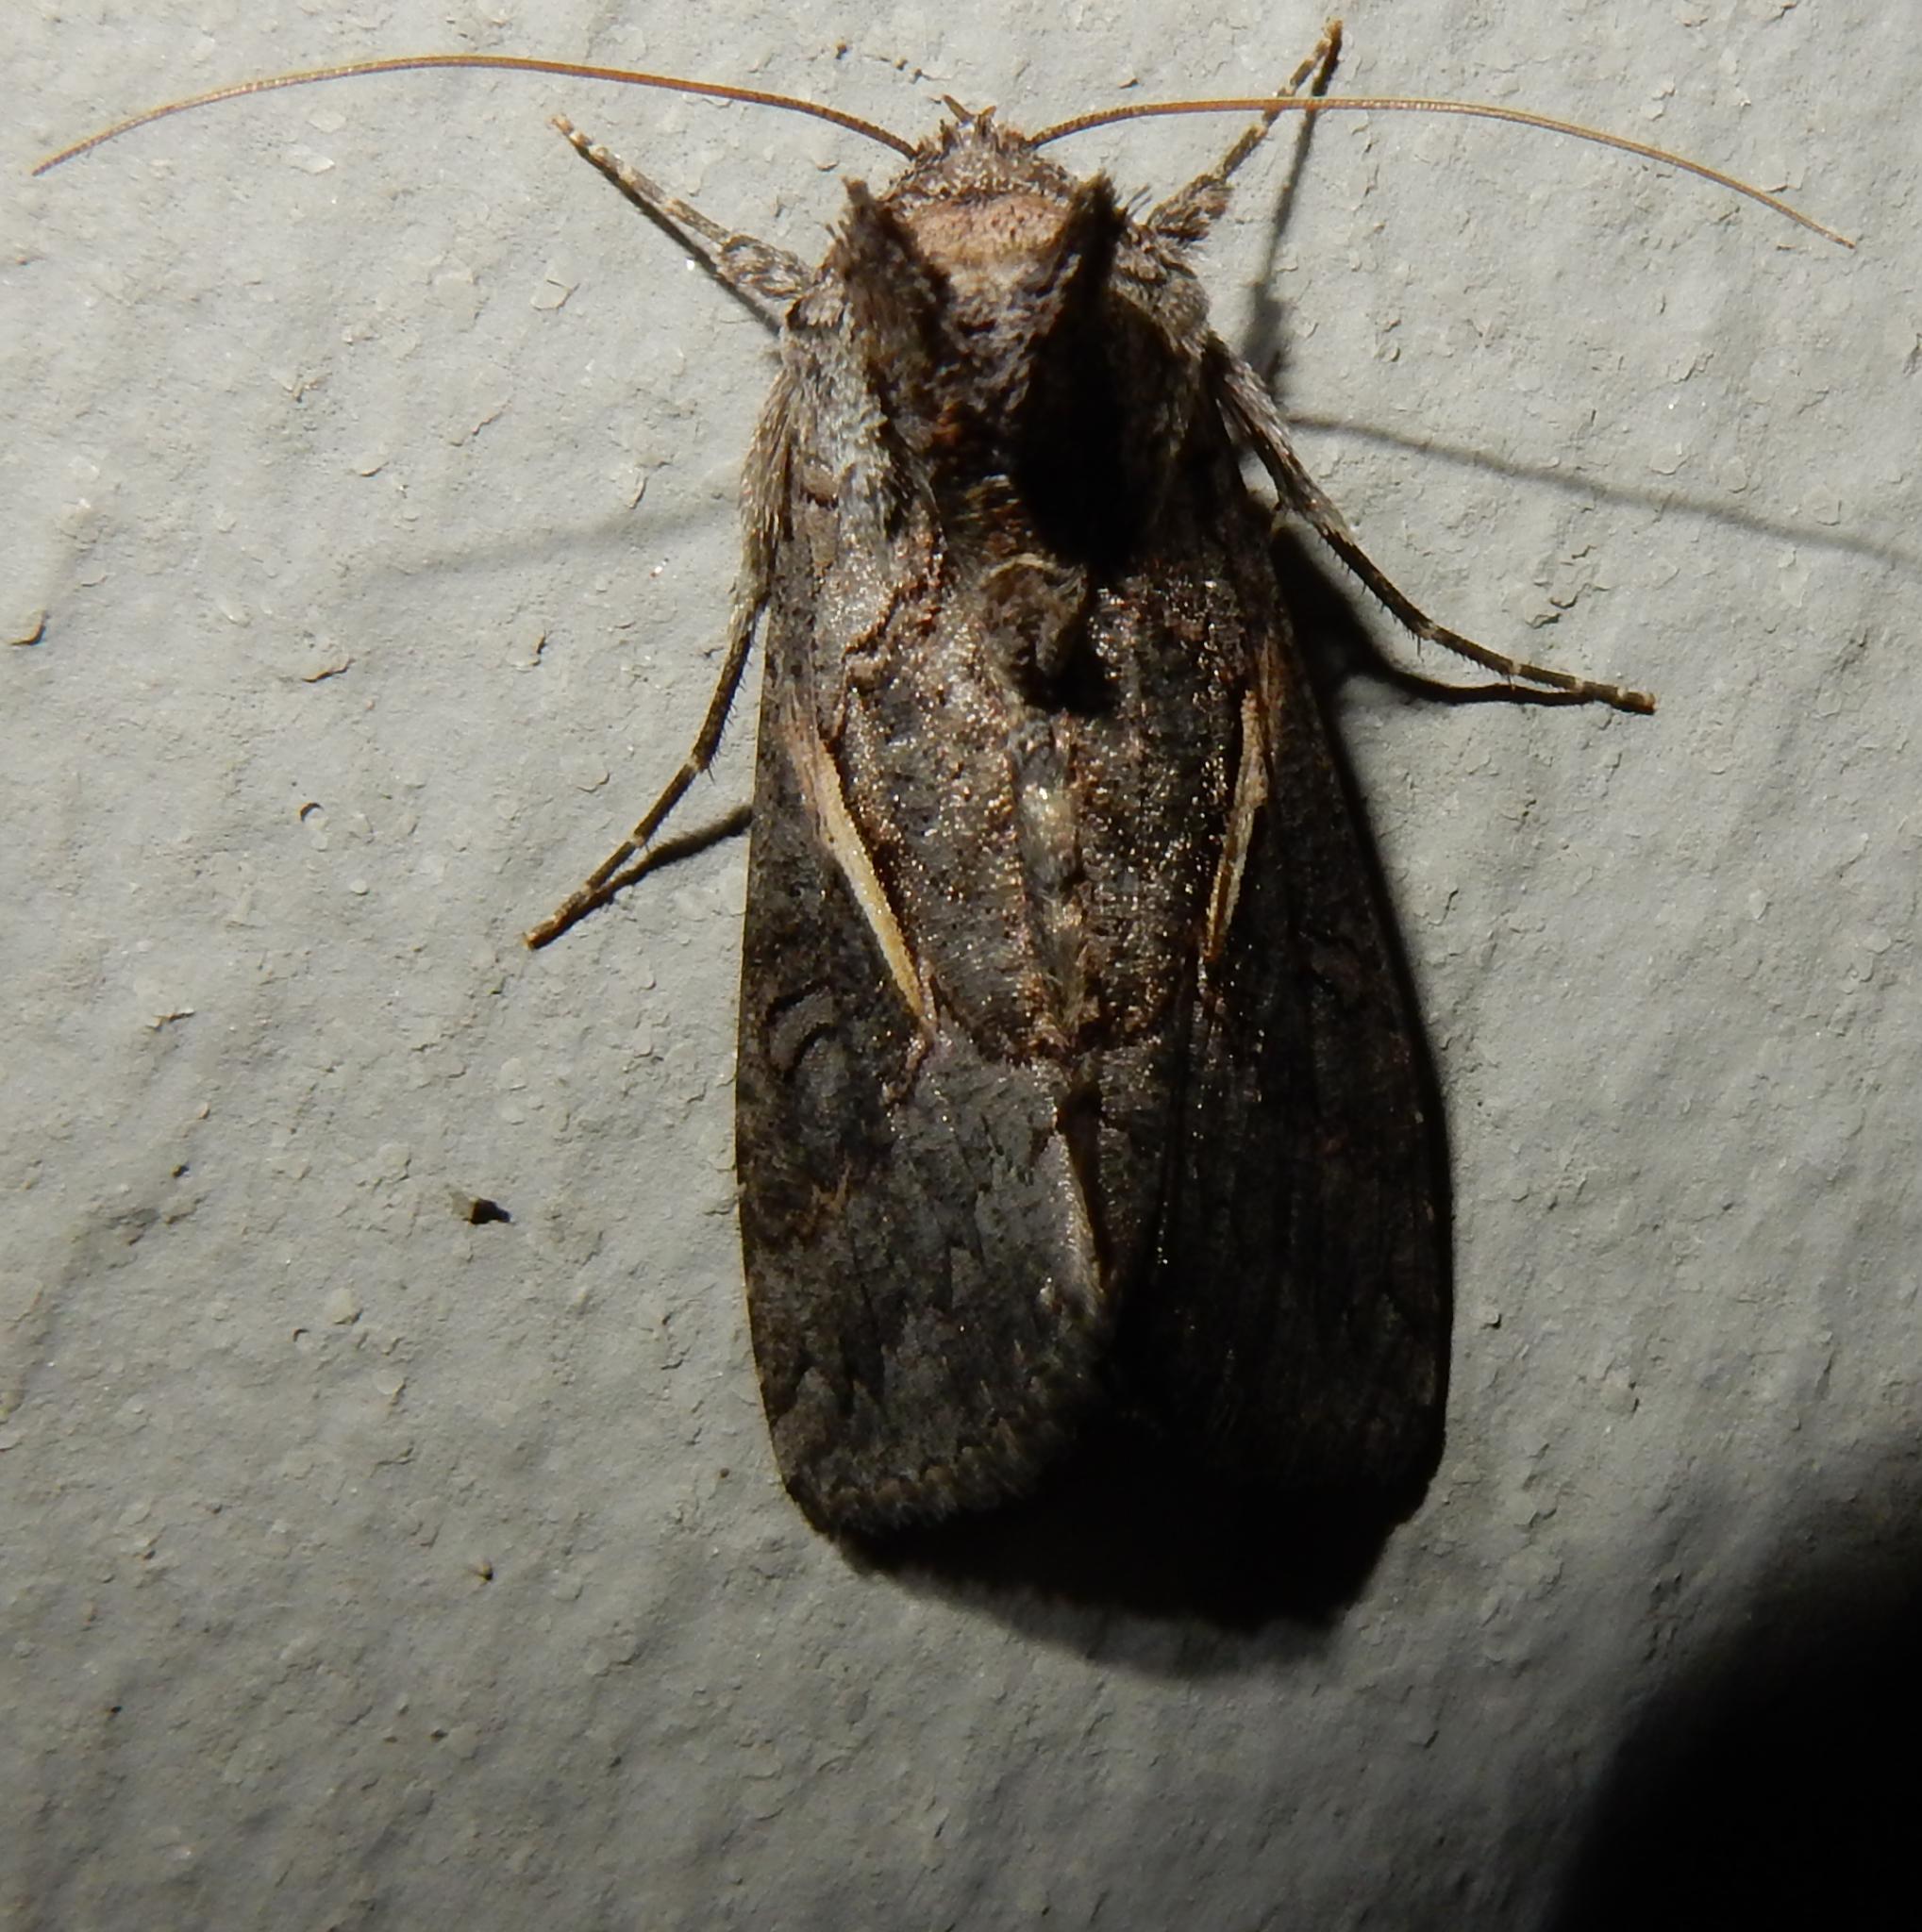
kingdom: Animalia
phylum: Arthropoda
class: Insecta
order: Lepidoptera
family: Noctuidae
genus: Vittaplusia
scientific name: Vittaplusia vittata
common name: Streaked plusia
